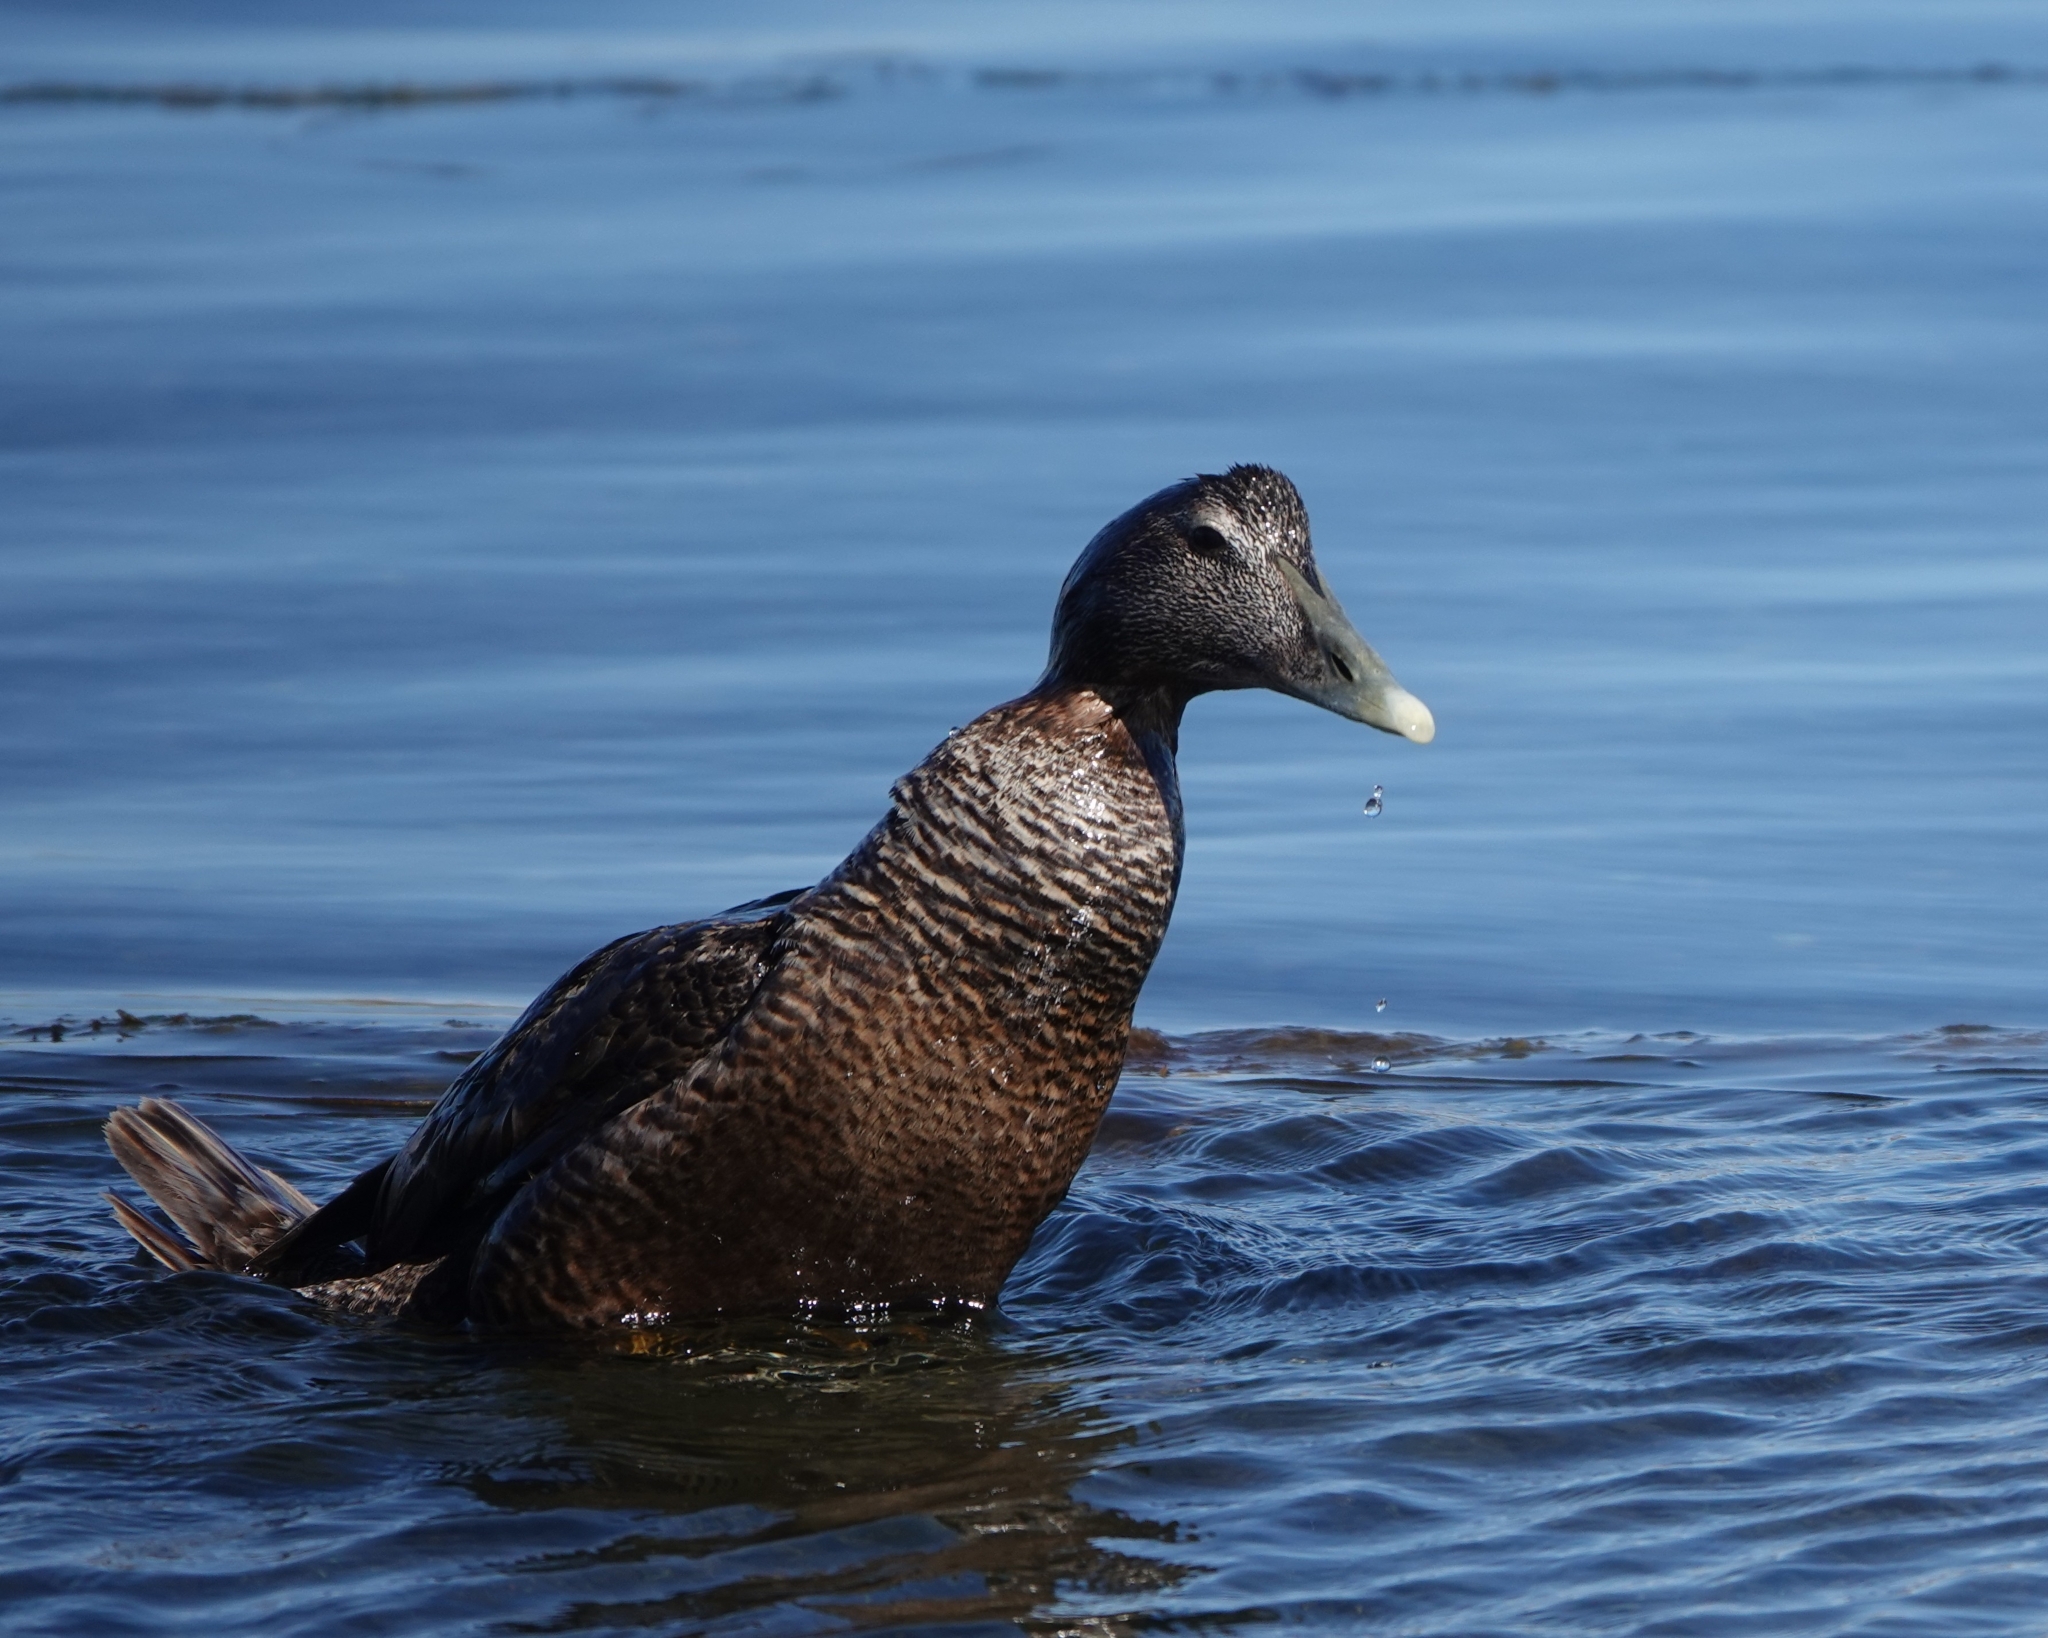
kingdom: Animalia
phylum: Chordata
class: Aves
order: Anseriformes
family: Anatidae
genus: Somateria
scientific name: Somateria mollissima
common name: Common eider
